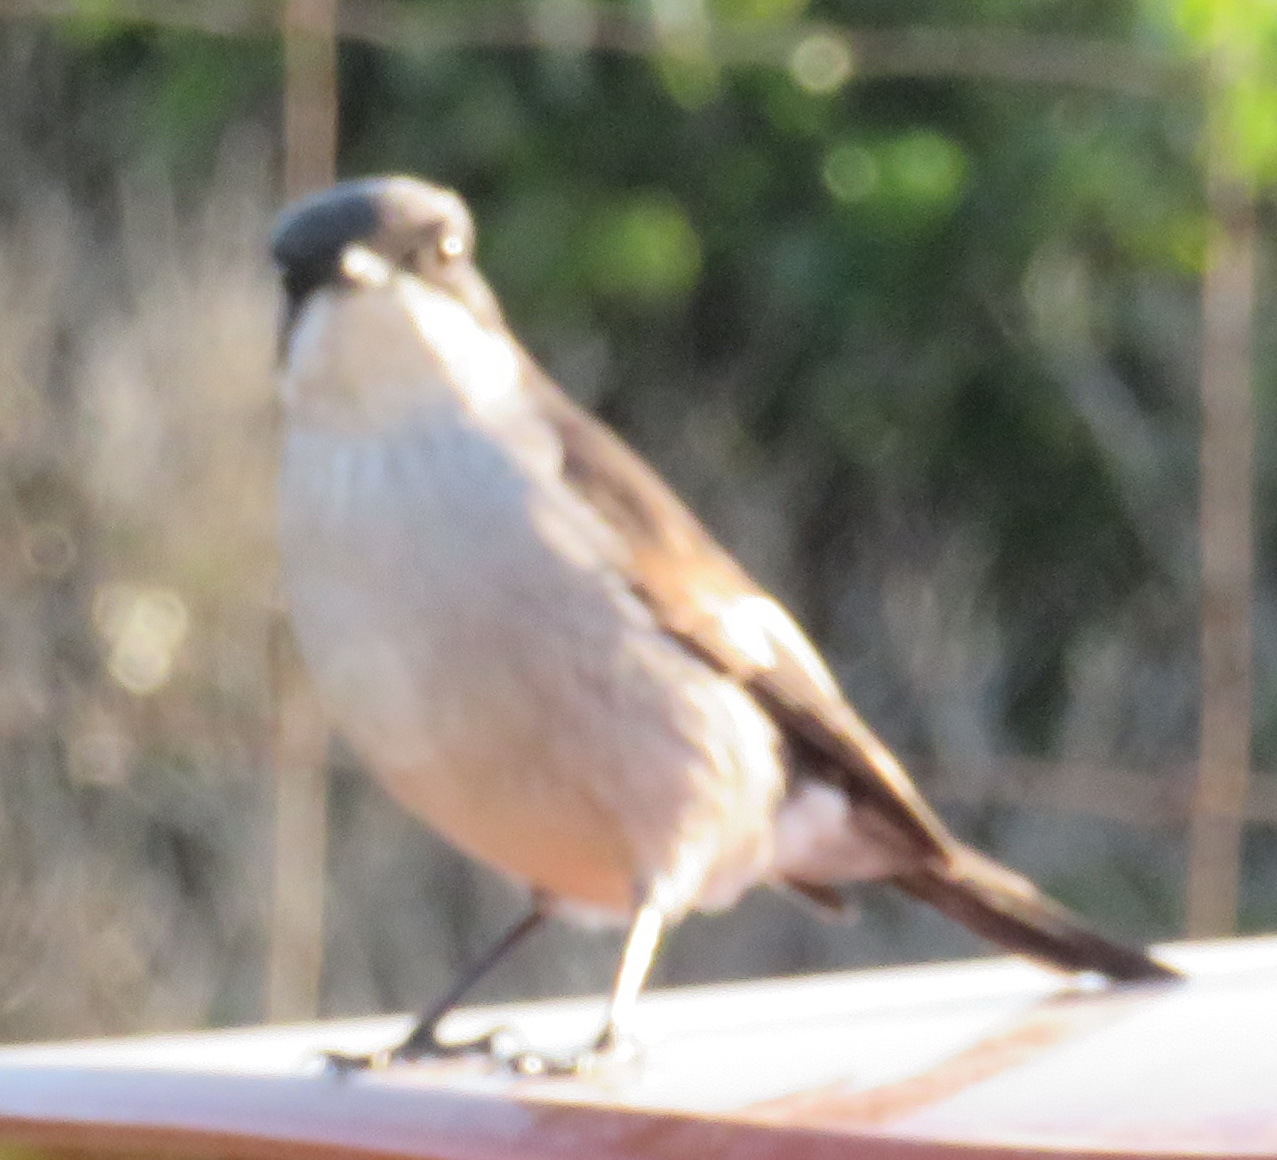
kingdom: Animalia
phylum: Chordata
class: Aves
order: Passeriformes
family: Muscicapidae
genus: Sigelus
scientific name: Sigelus silens
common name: Fiscal flycatcher
